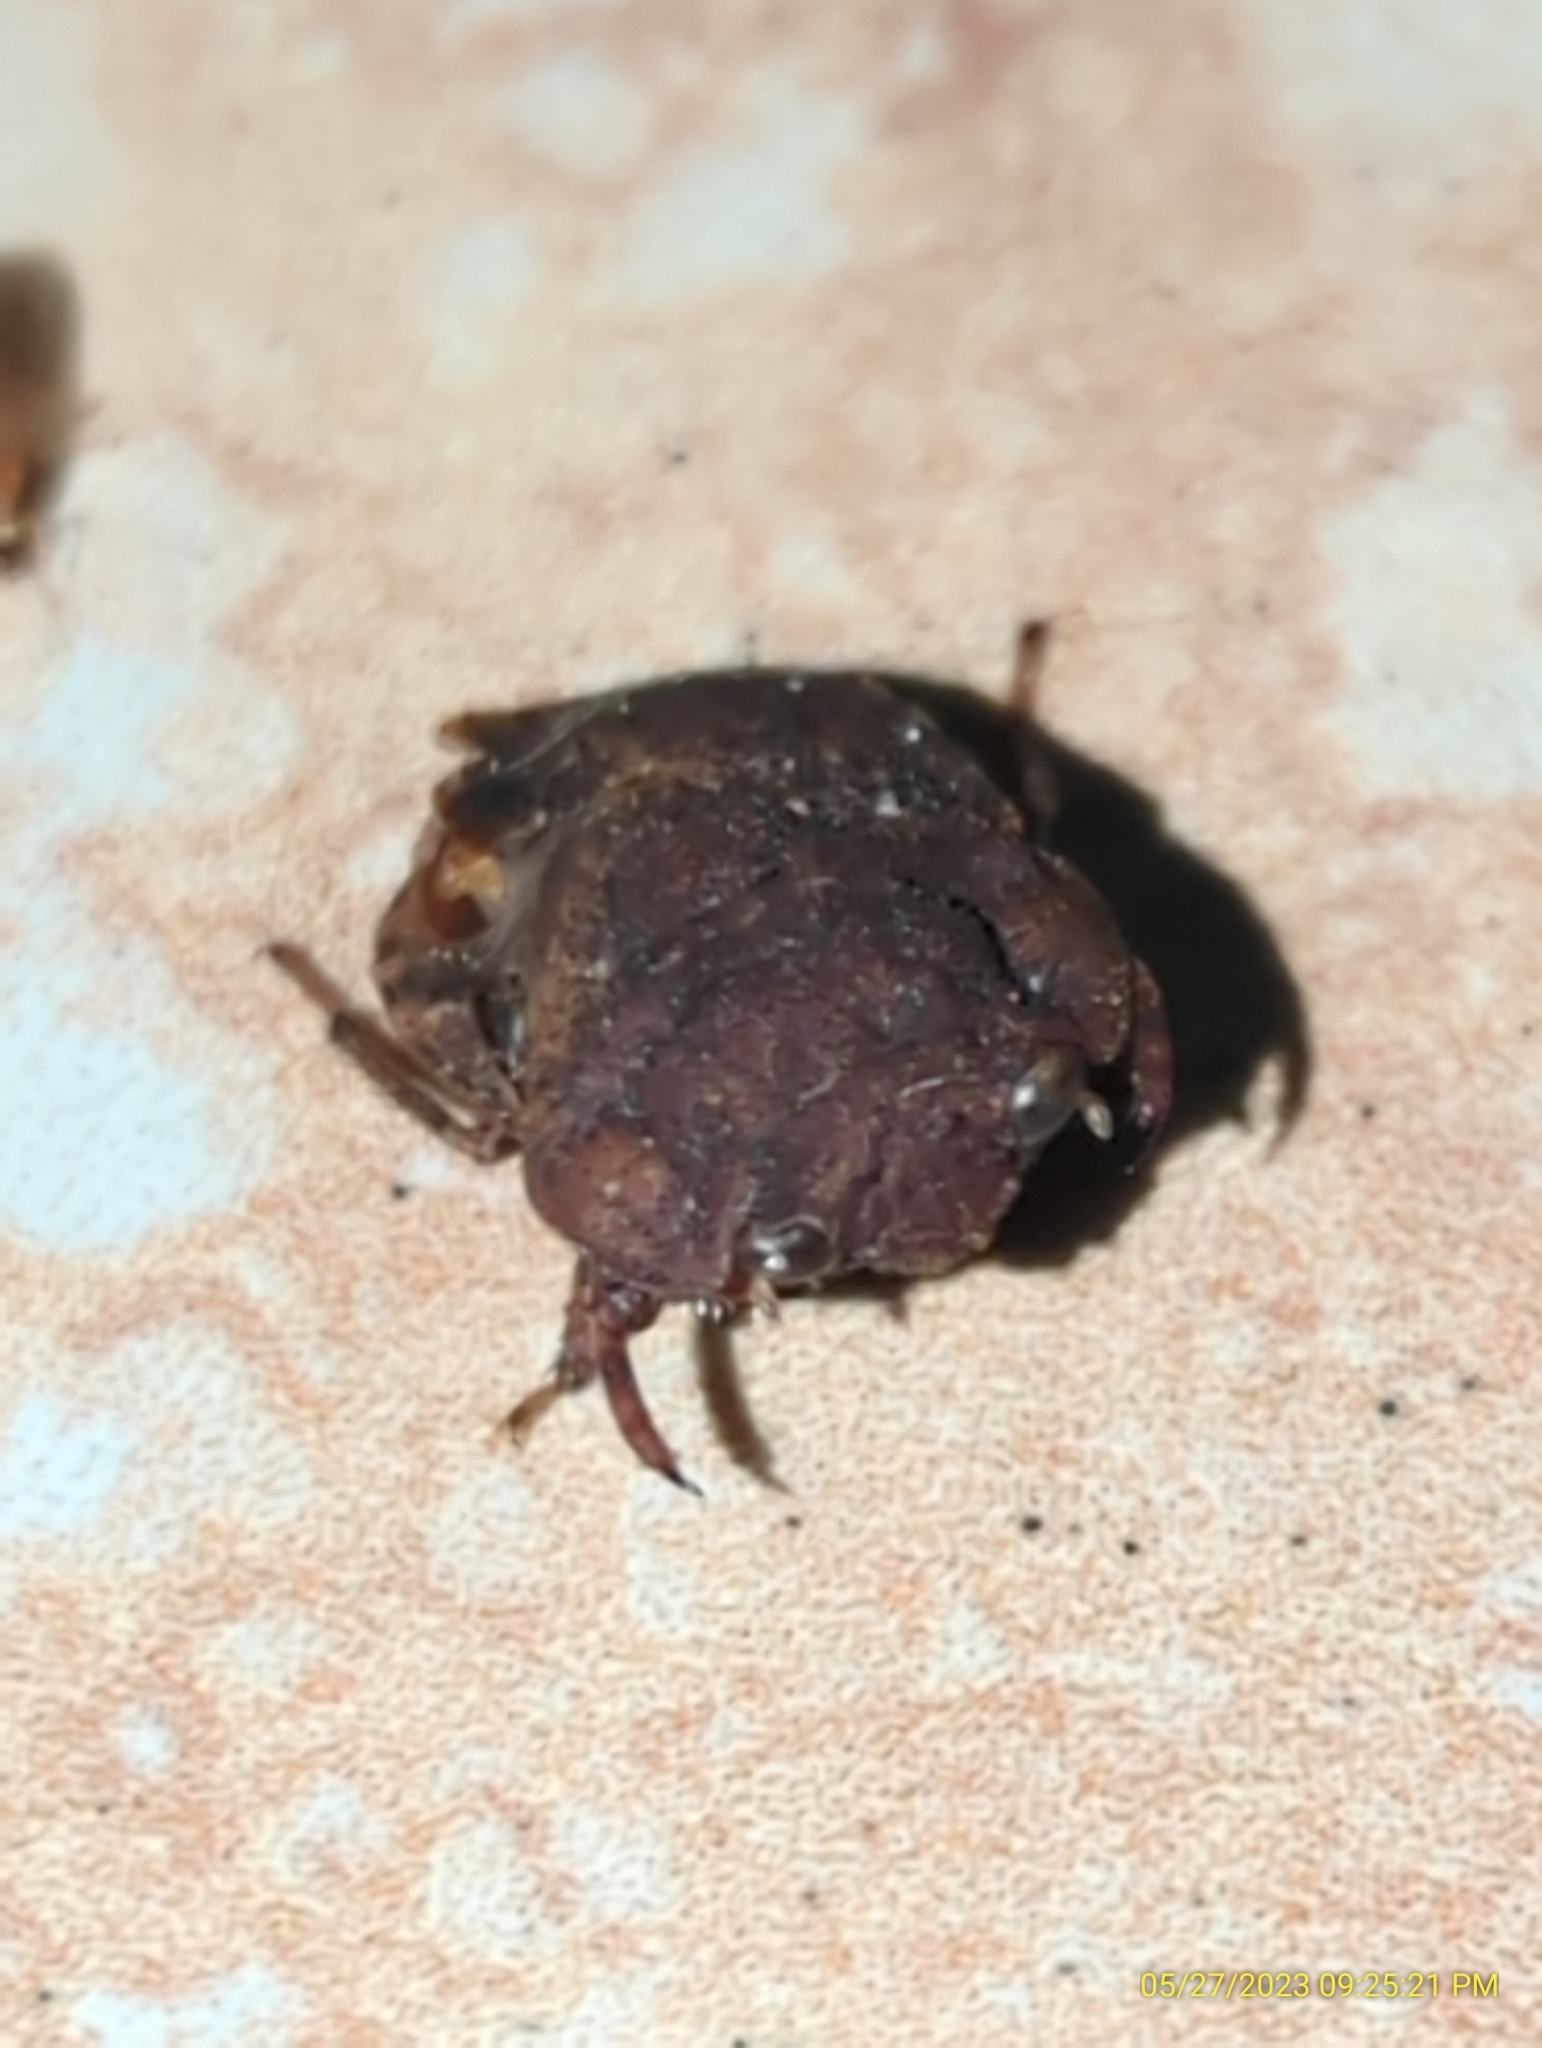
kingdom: Animalia
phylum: Arthropoda
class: Insecta
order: Hemiptera
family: Gelastocoridae
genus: Nerthra
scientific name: Nerthra
